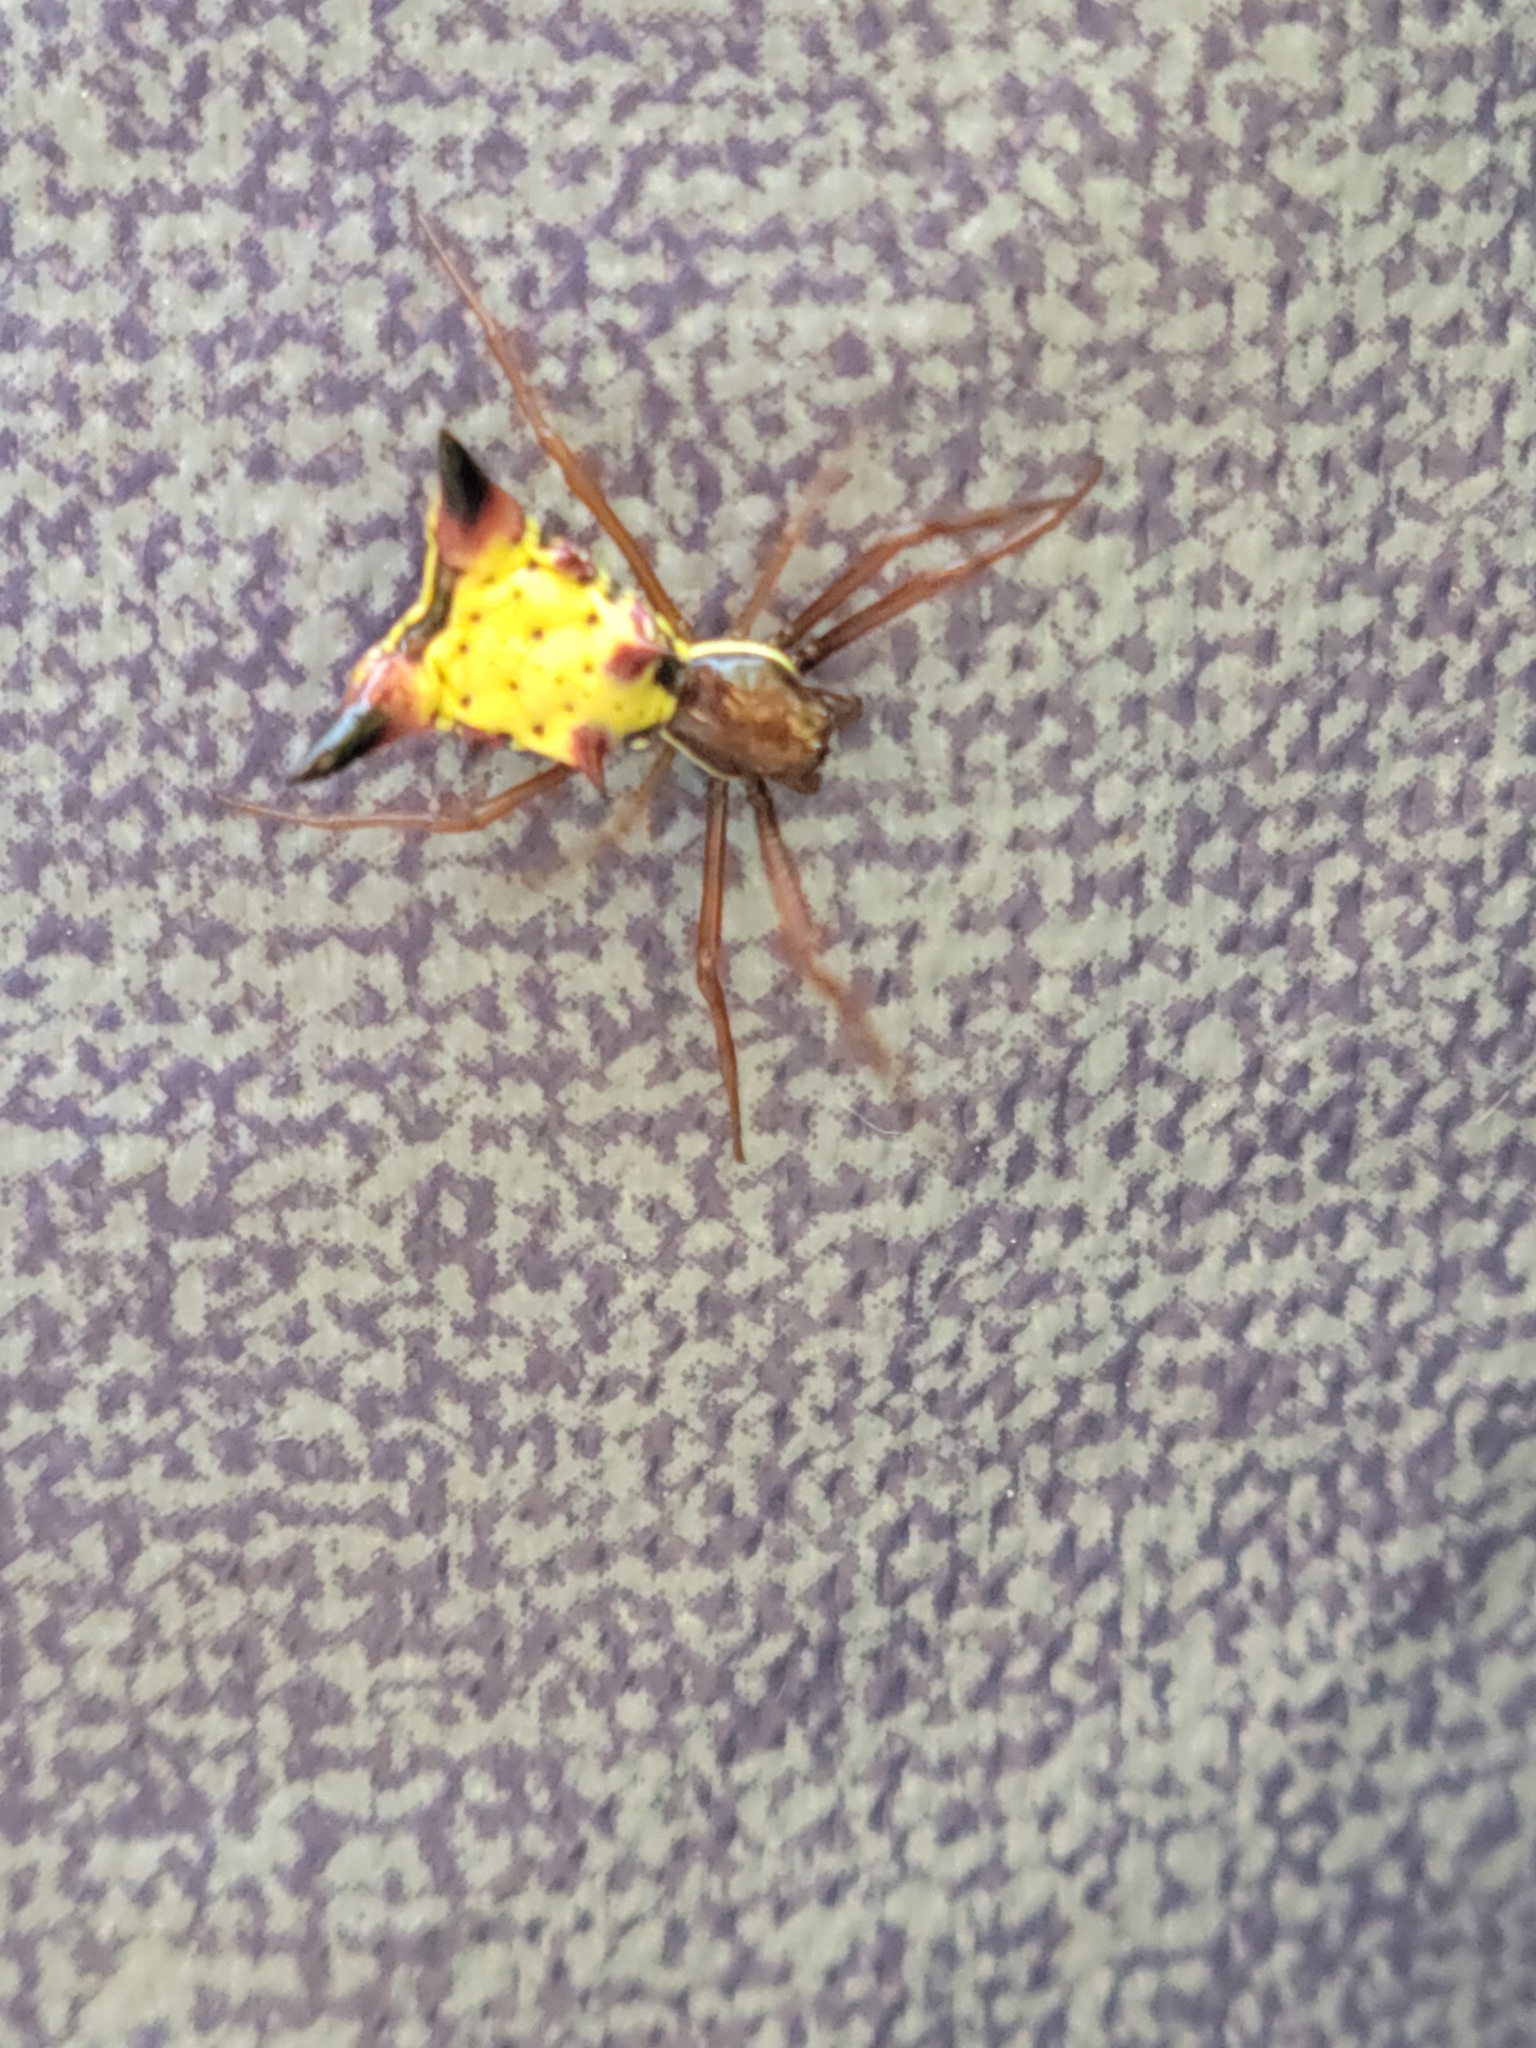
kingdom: Animalia
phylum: Arthropoda
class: Arachnida
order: Araneae
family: Araneidae
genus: Micrathena
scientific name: Micrathena sagittata
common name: Orb weavers
